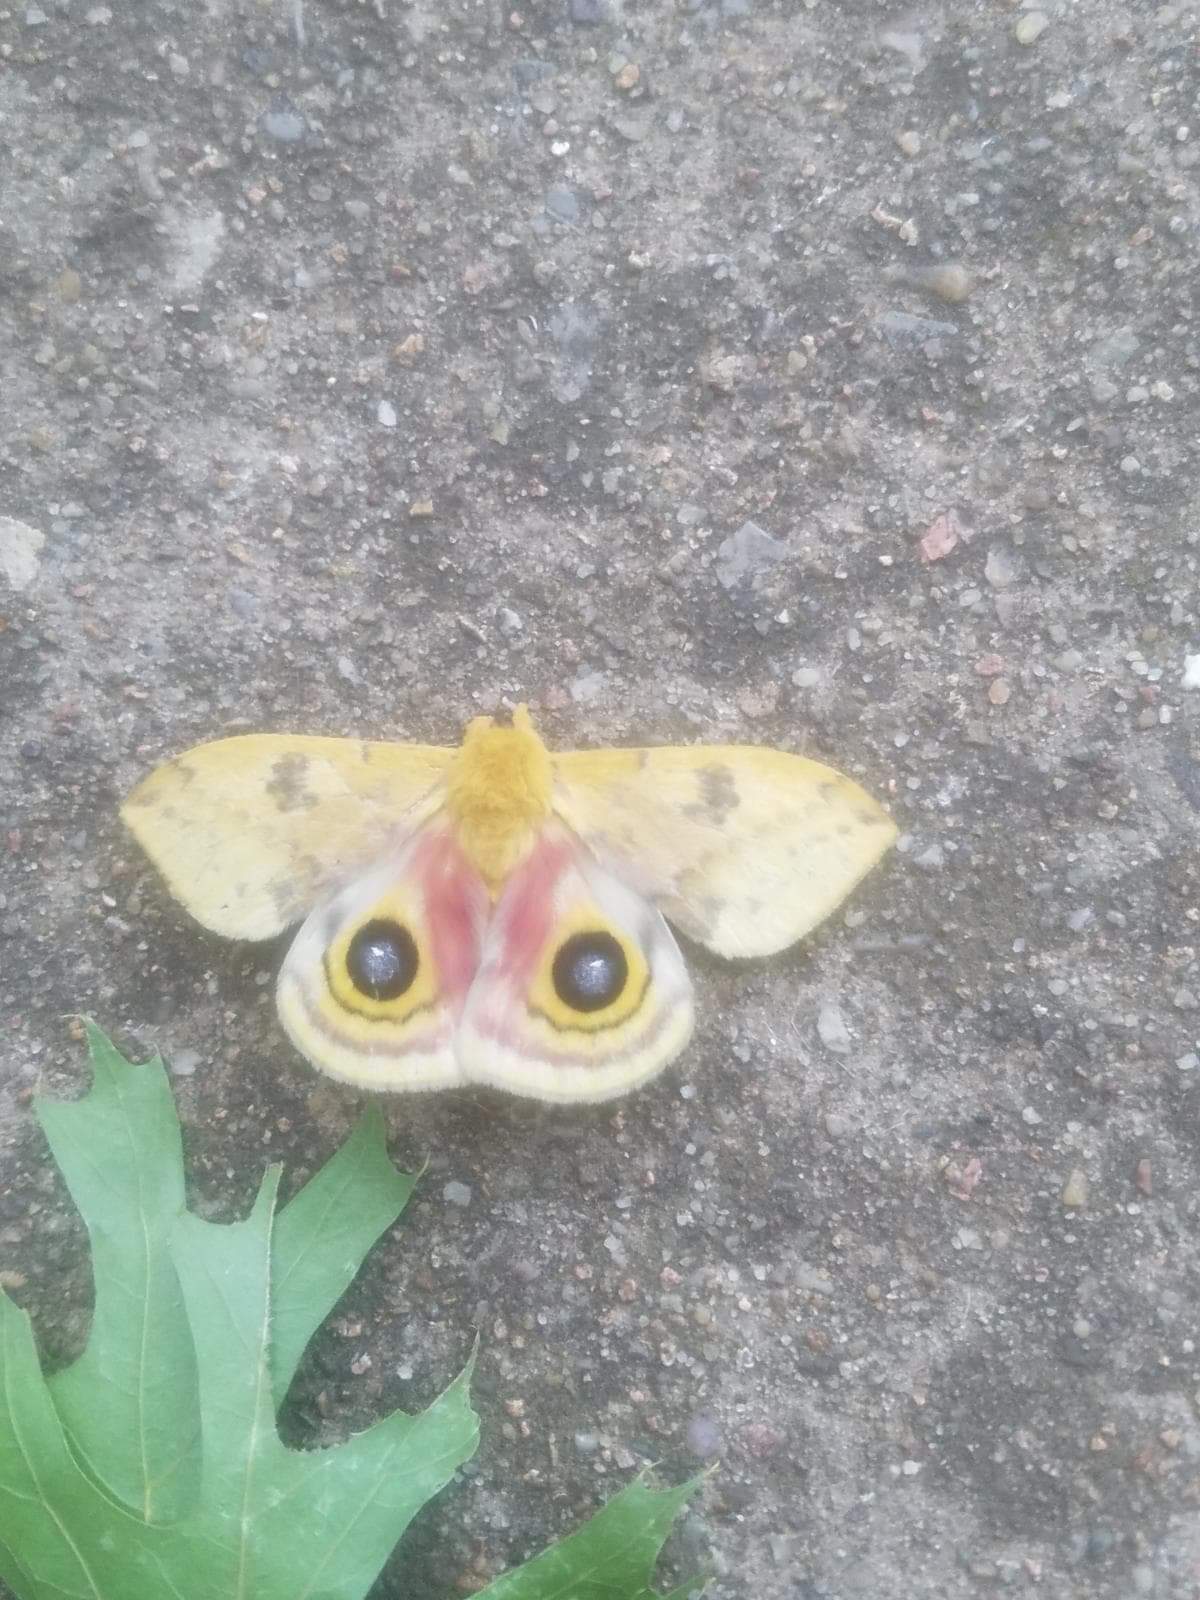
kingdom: Animalia
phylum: Arthropoda
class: Insecta
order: Lepidoptera
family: Saturniidae
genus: Automeris
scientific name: Automeris io
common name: Io moth
